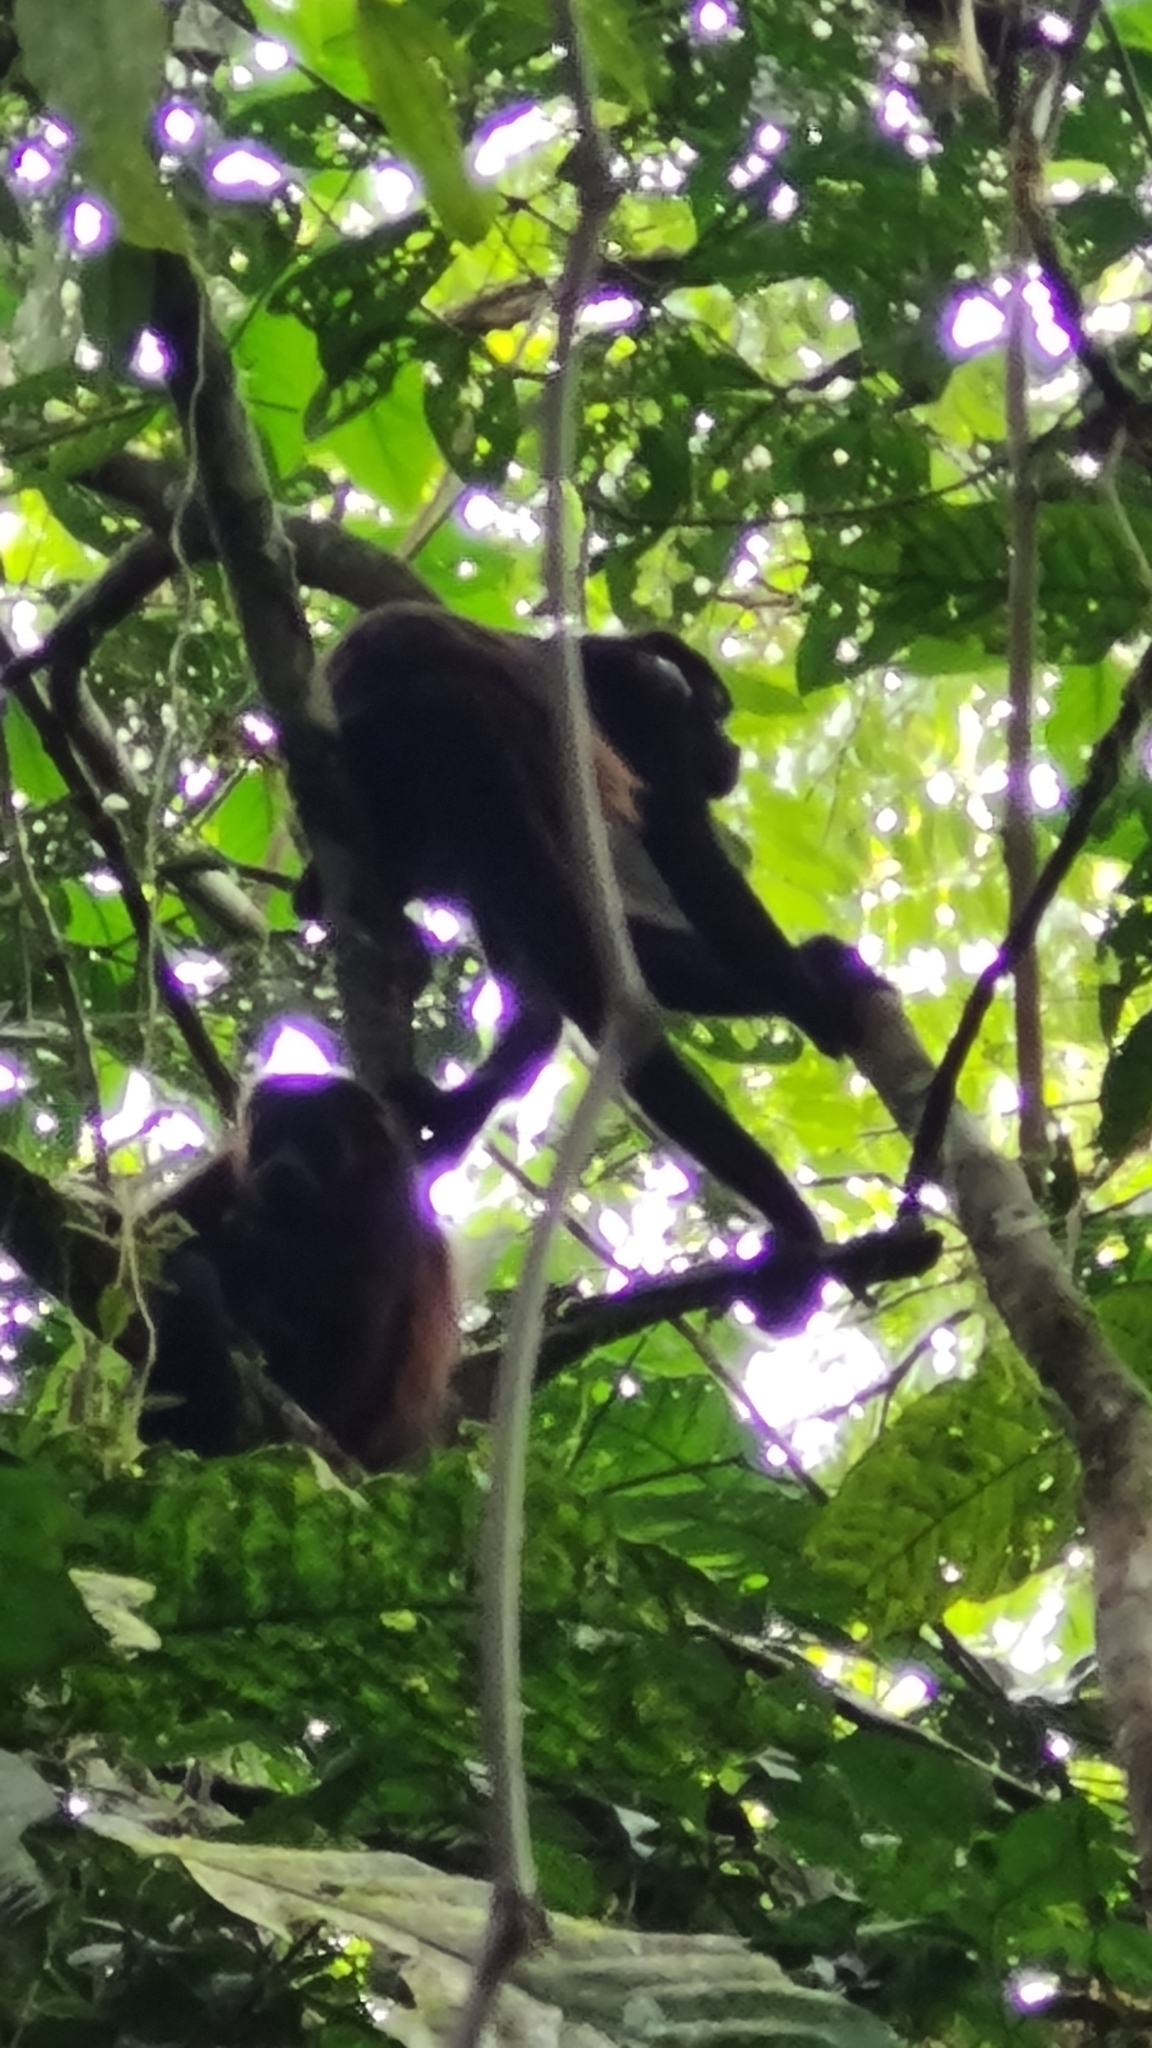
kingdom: Animalia
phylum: Chordata
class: Mammalia
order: Primates
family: Atelidae
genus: Alouatta
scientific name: Alouatta palliata
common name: Mantled howler
